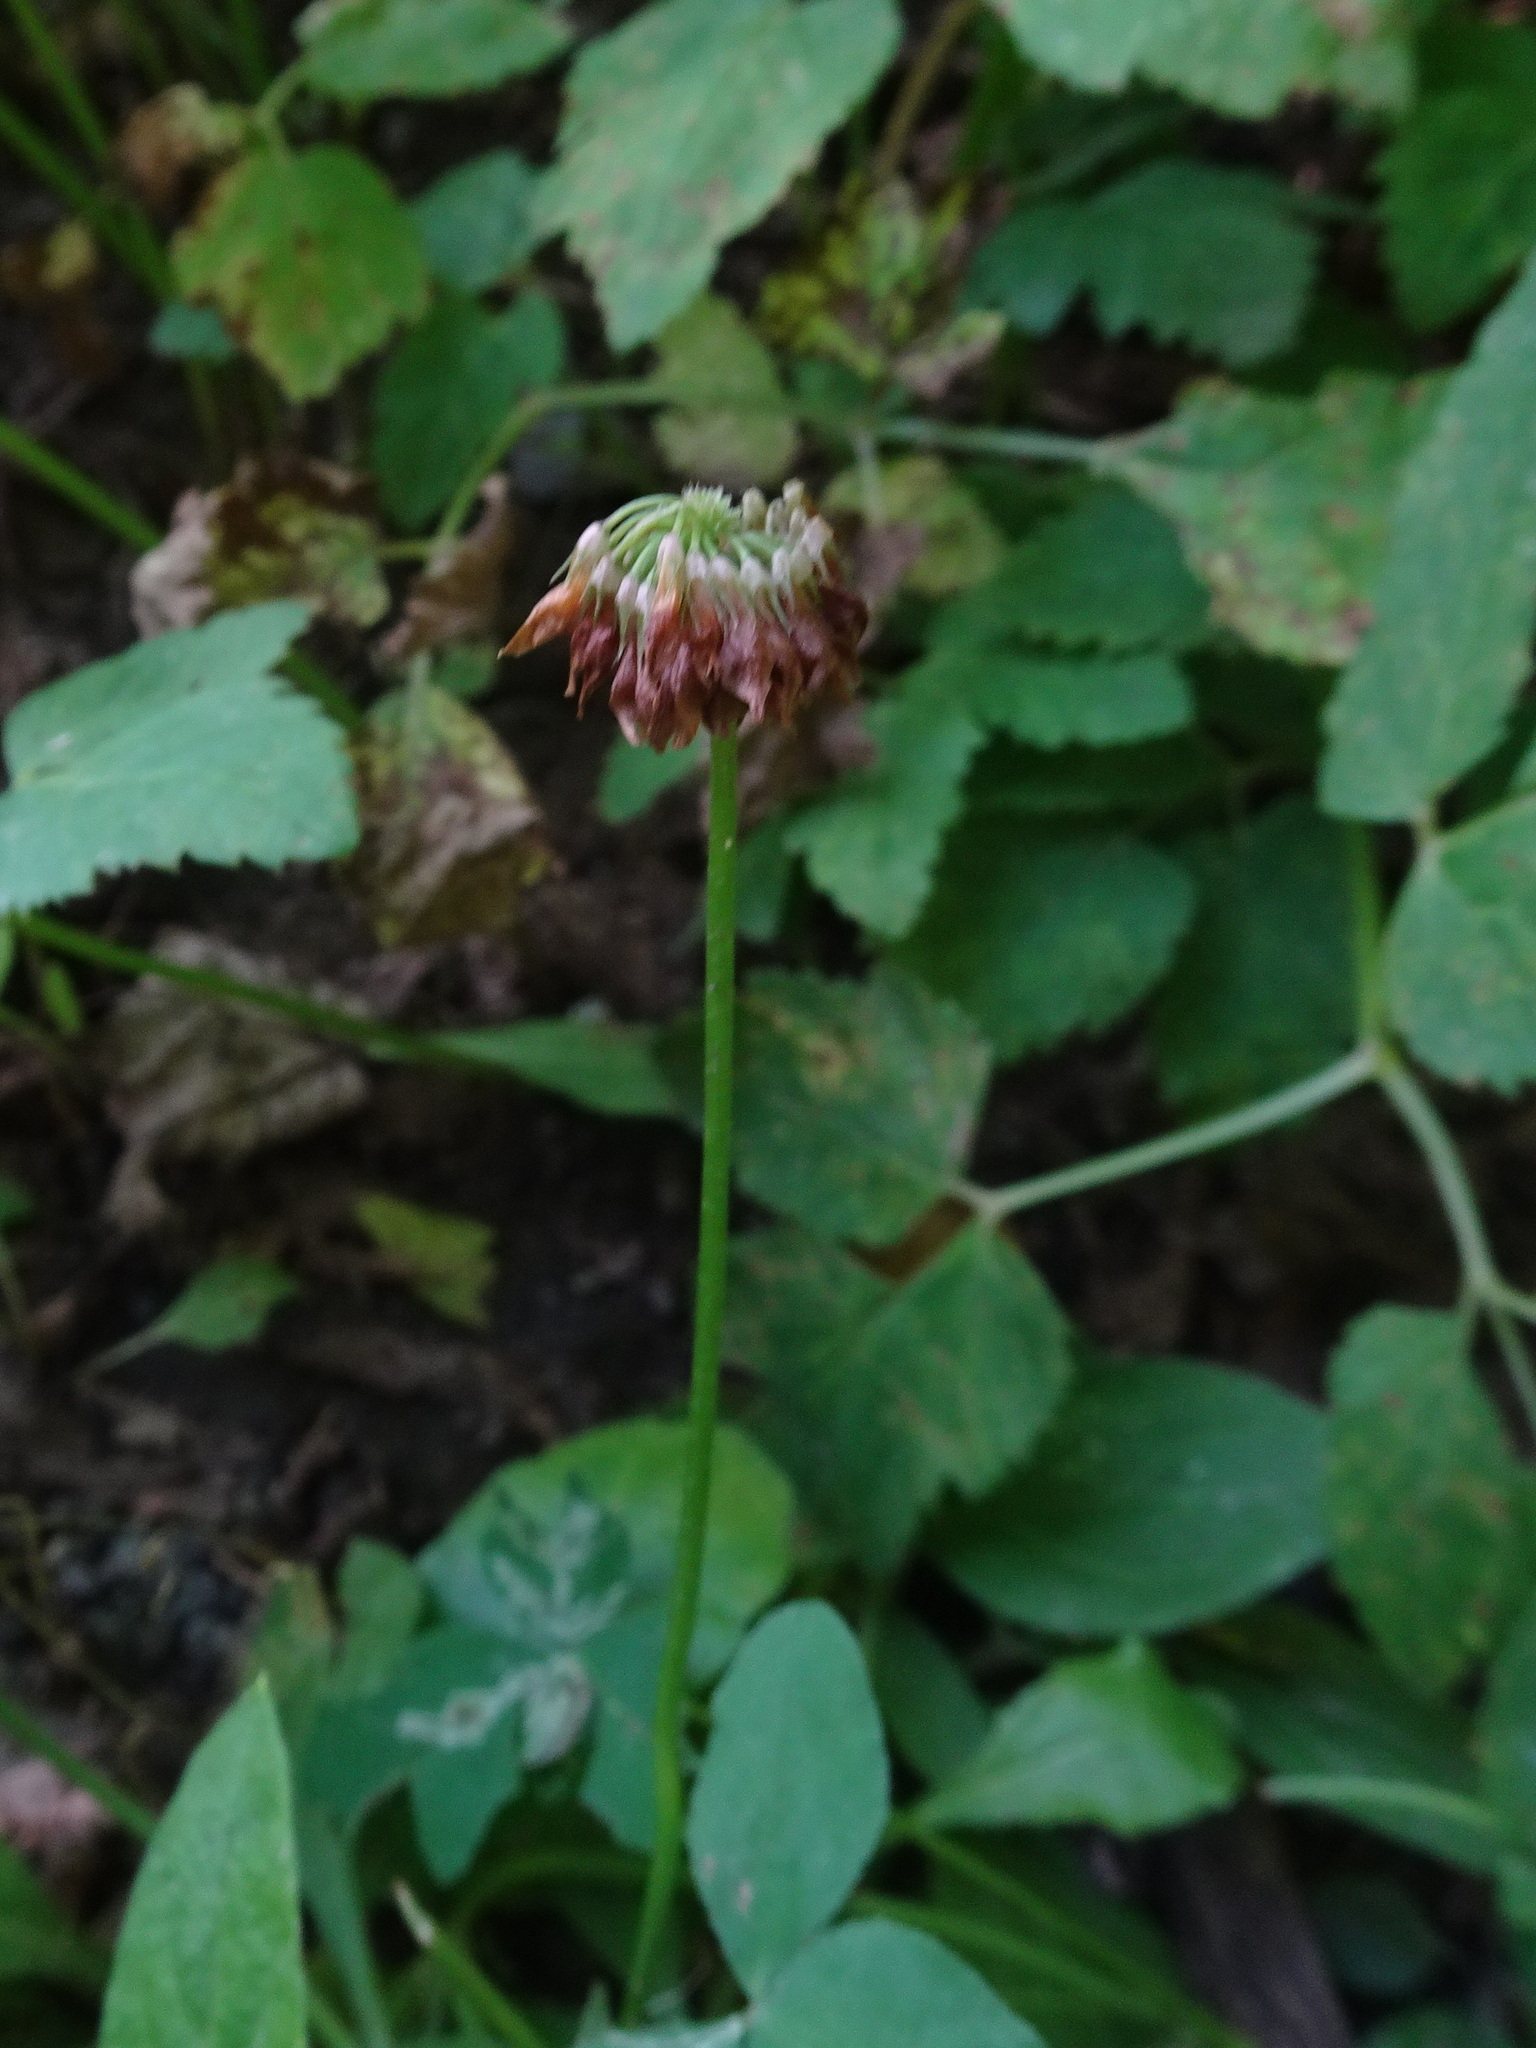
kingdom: Plantae
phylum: Tracheophyta
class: Magnoliopsida
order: Fabales
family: Fabaceae
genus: Trifolium
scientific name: Trifolium repens
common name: White clover
